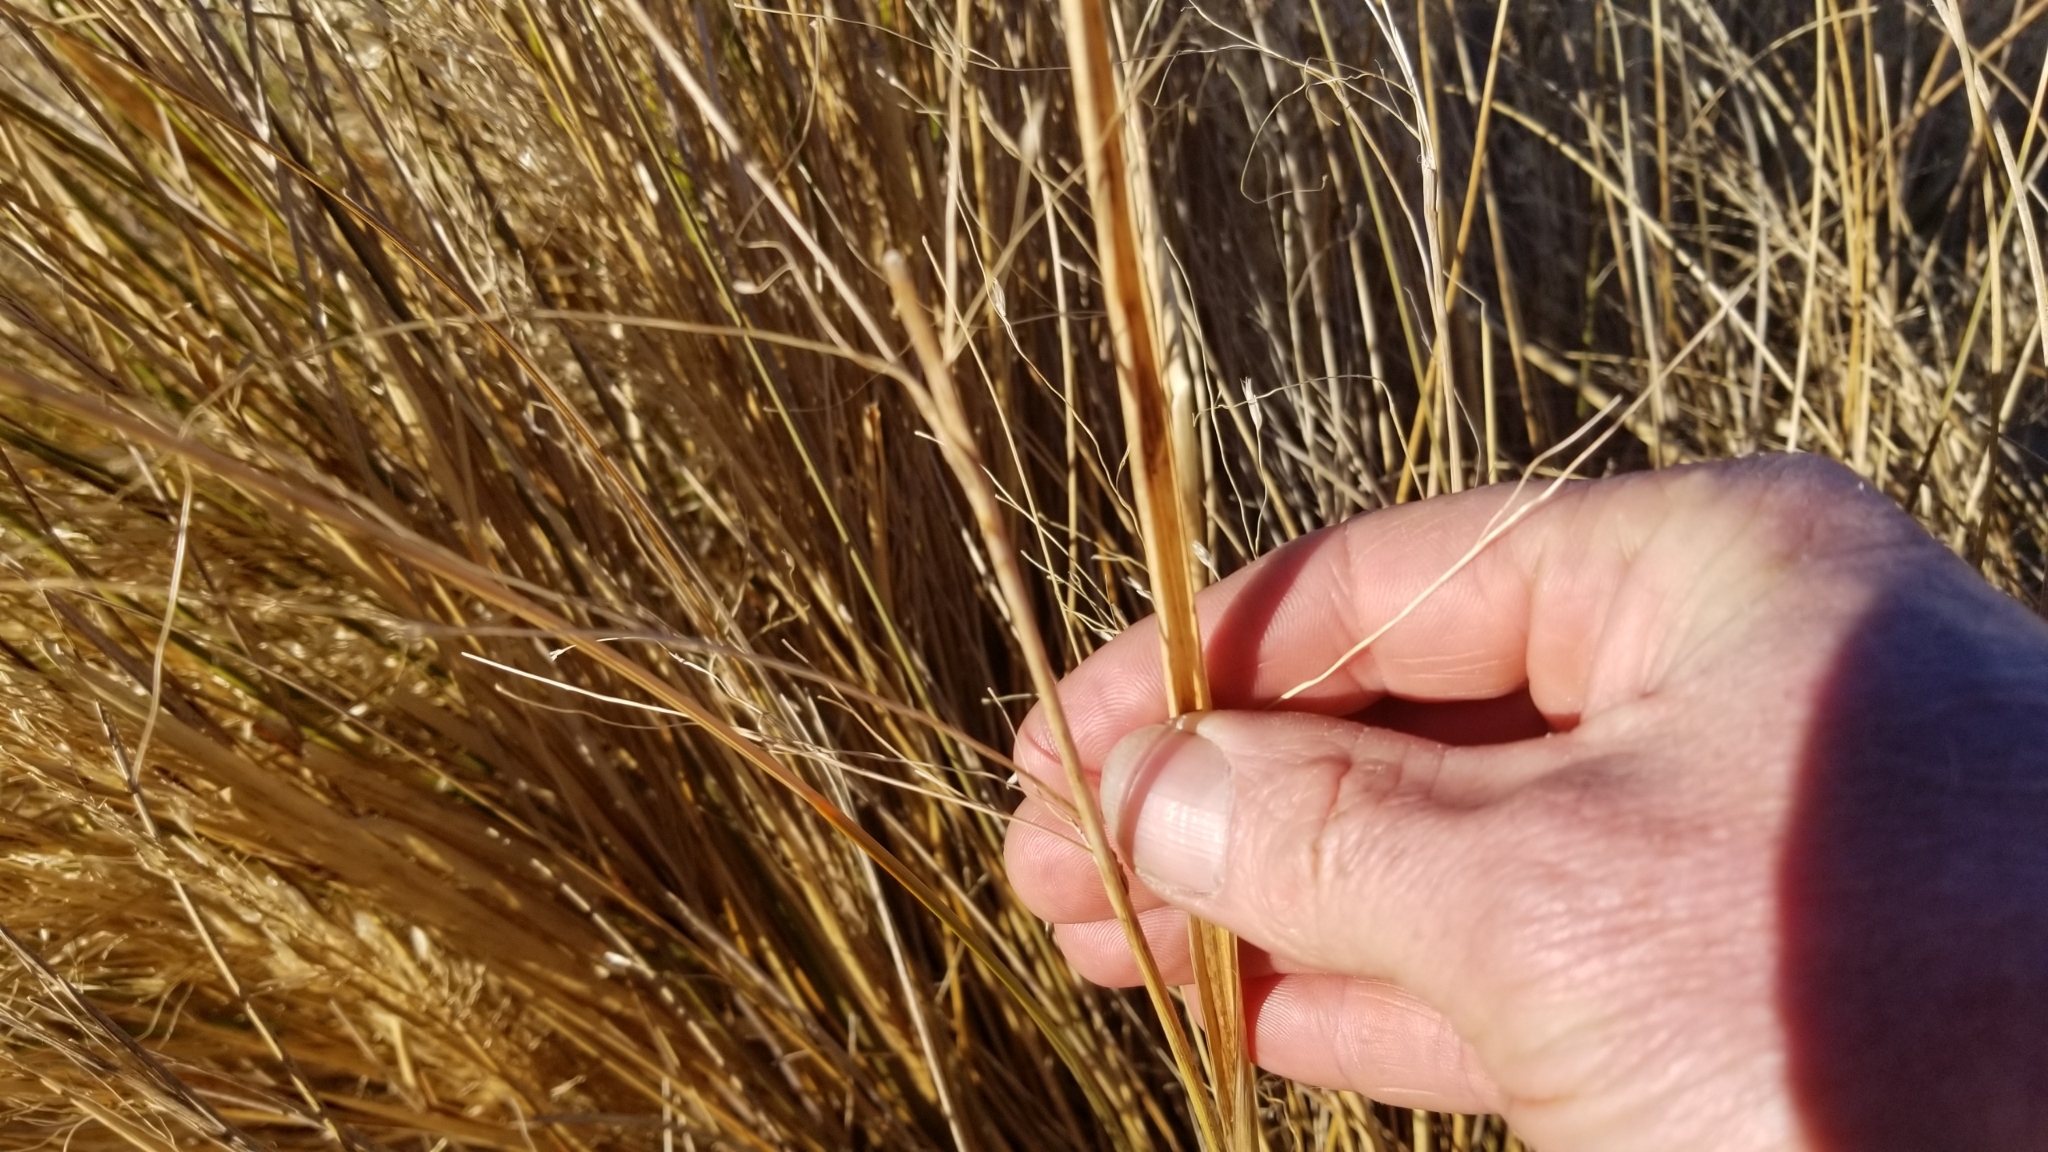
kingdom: Plantae
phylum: Tracheophyta
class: Liliopsida
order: Poales
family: Poaceae
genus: Chionochloa
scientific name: Chionochloa rigida
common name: Narrow leaved snow tussock
